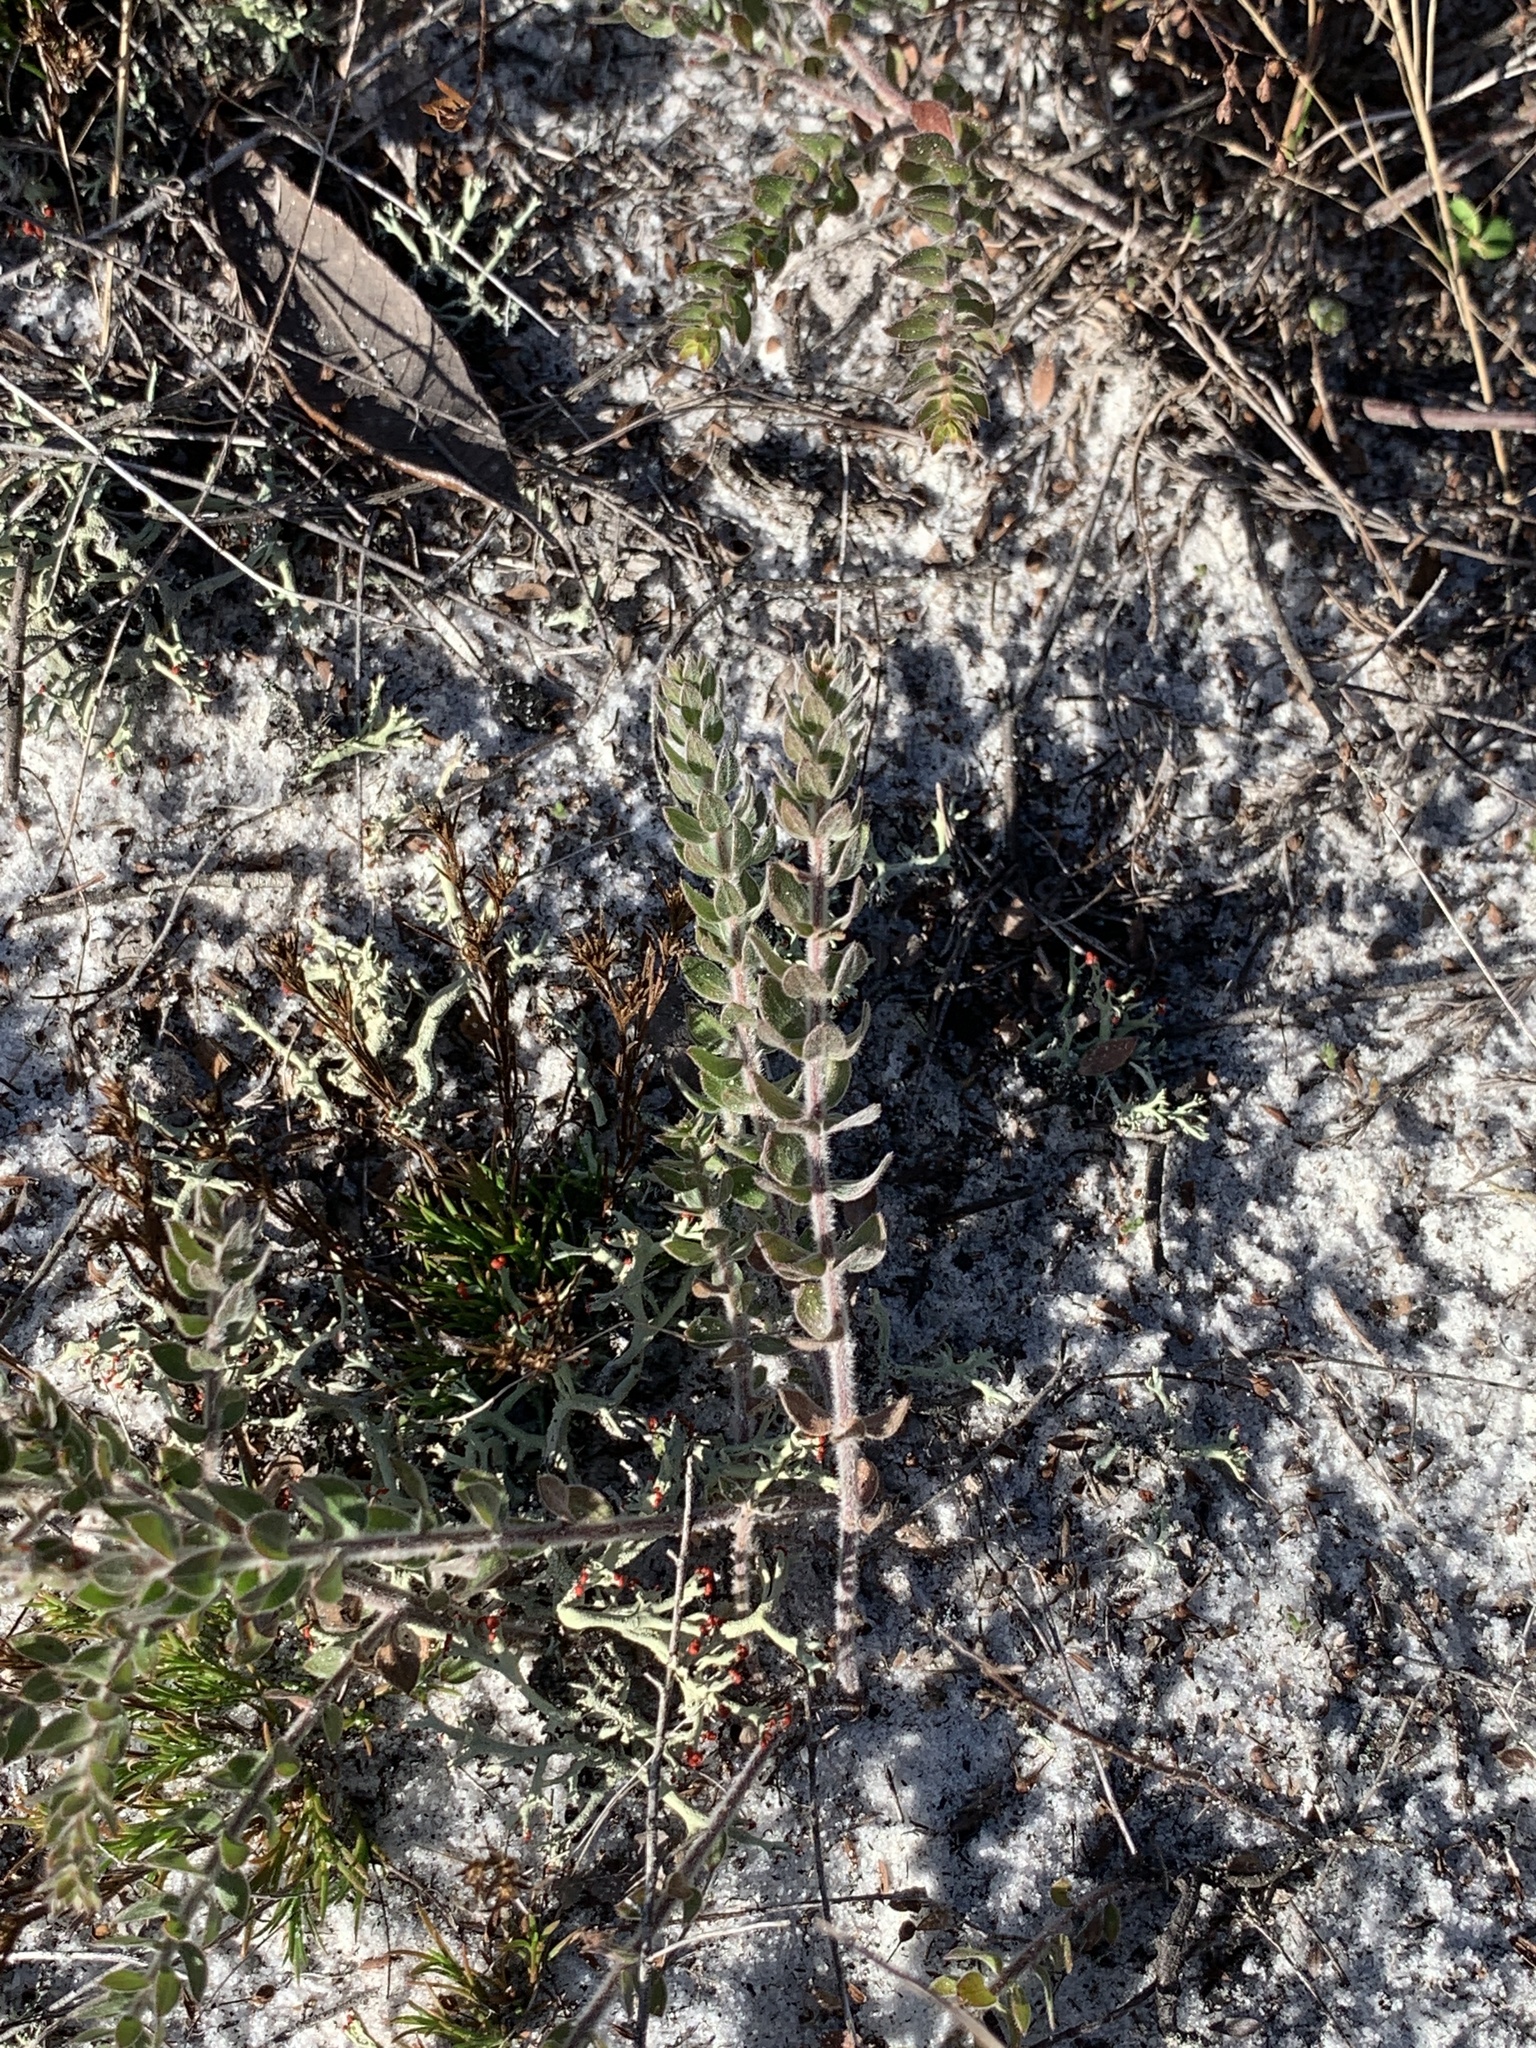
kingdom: Plantae
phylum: Tracheophyta
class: Magnoliopsida
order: Malvales
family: Cistaceae
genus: Lechea
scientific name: Lechea cernua
